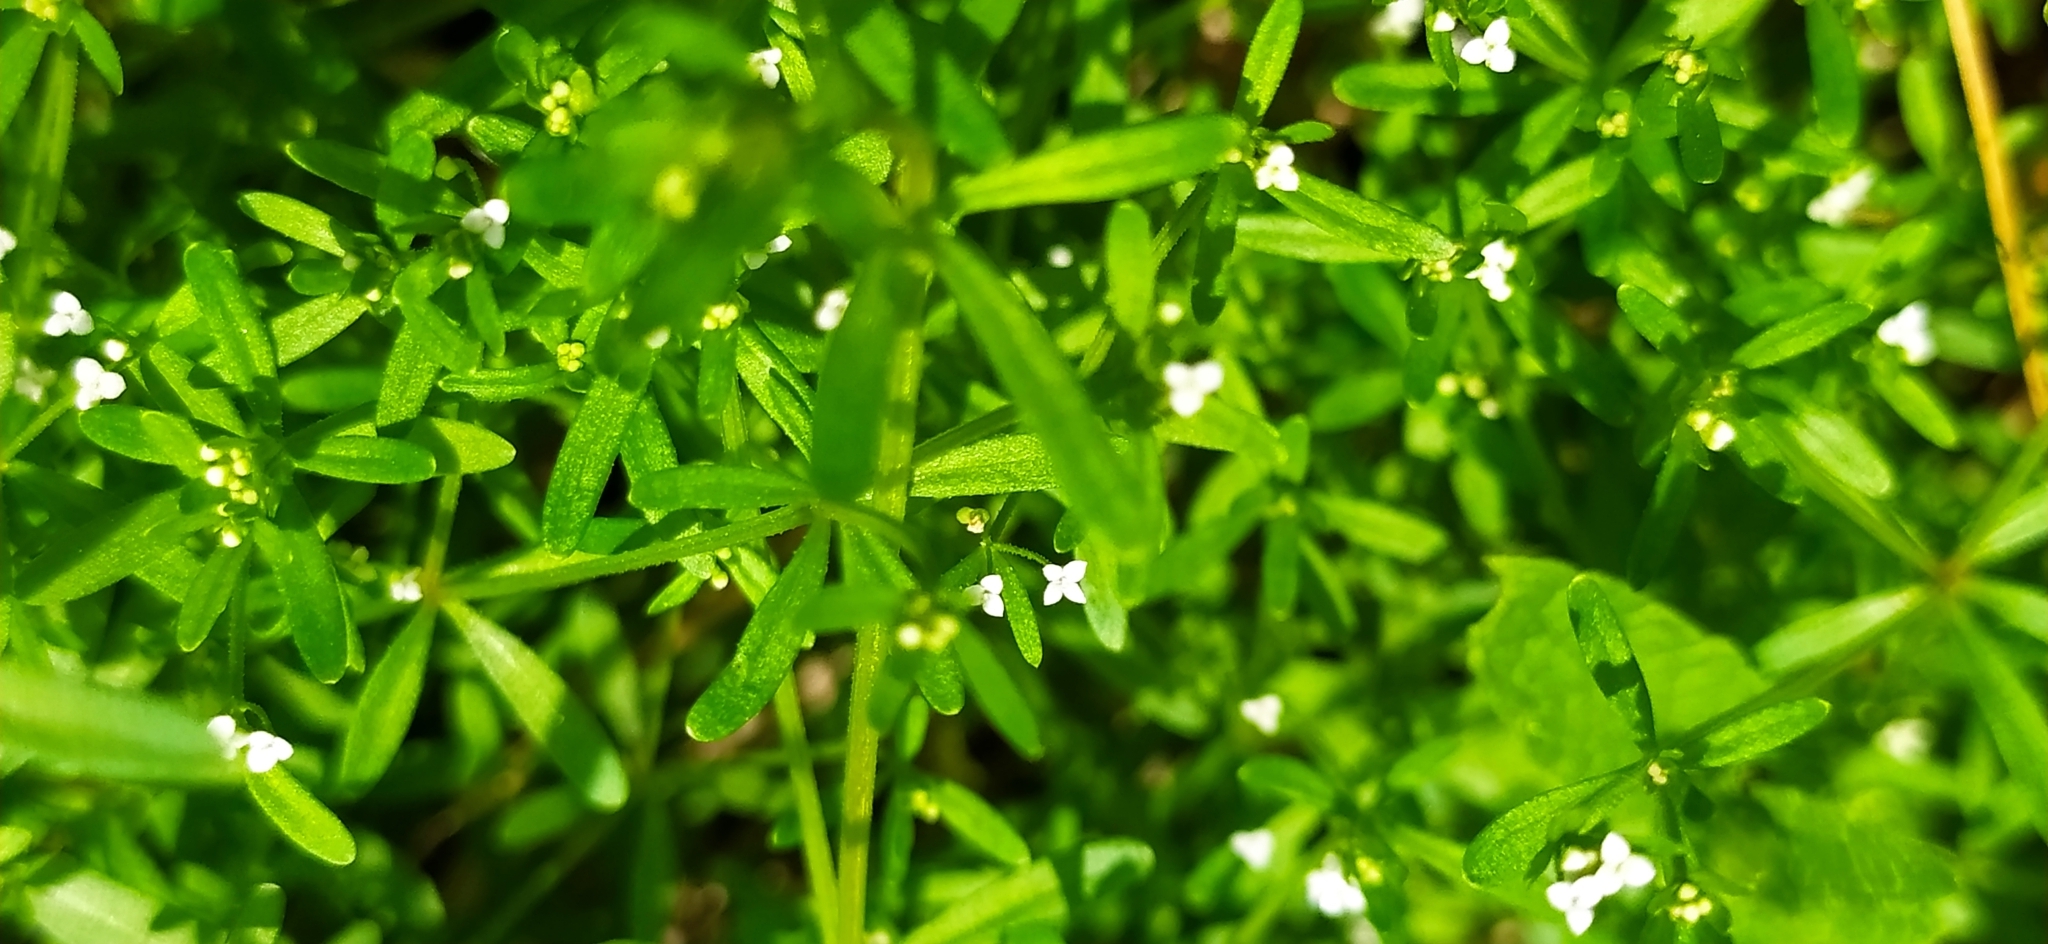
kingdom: Plantae
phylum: Tracheophyta
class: Magnoliopsida
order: Gentianales
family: Rubiaceae
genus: Galium
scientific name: Galium trifidum
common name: Small bedstraw
